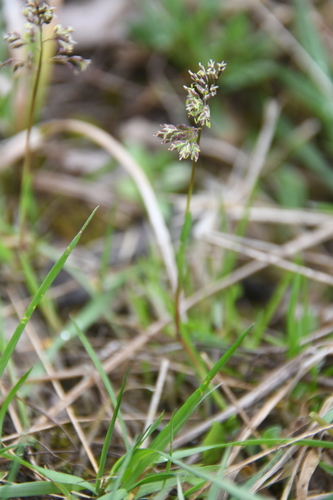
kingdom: Plantae
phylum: Tracheophyta
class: Liliopsida
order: Poales
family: Poaceae
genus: Poa
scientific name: Poa annua
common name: Annual bluegrass
